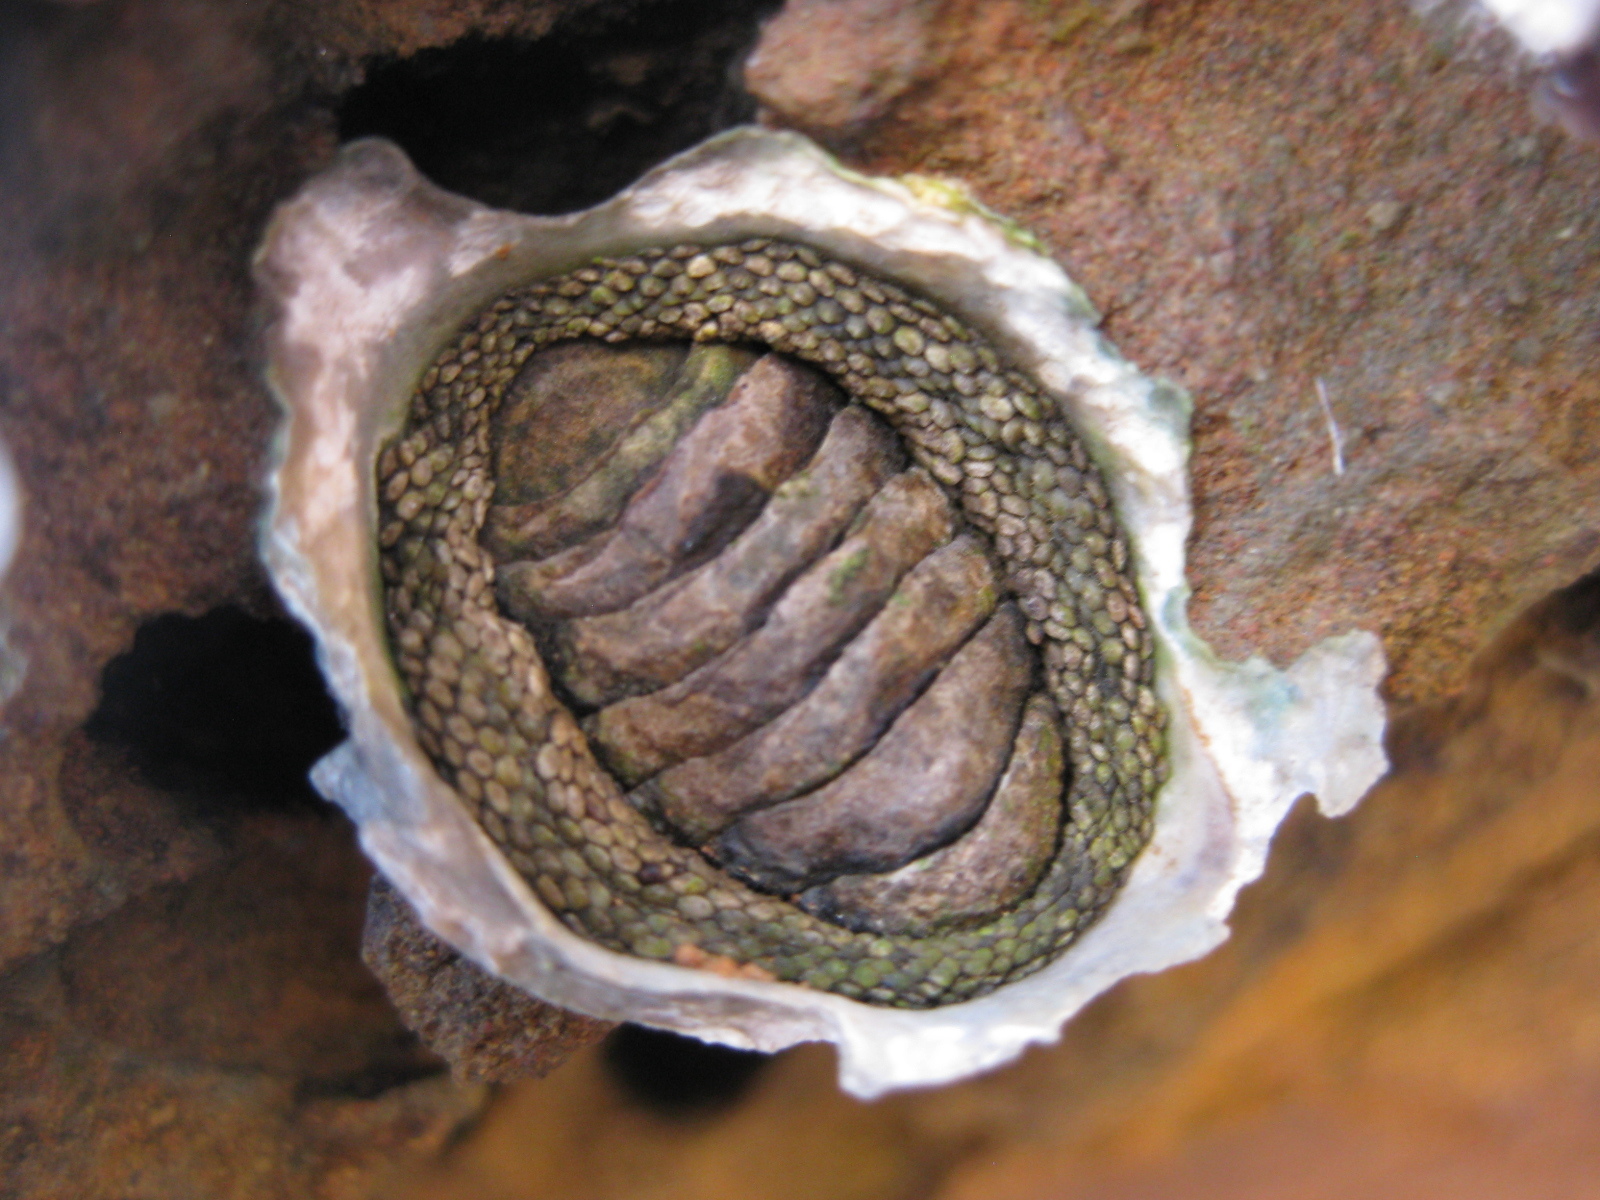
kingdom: Animalia
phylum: Mollusca
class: Polyplacophora
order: Chitonida
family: Chitonidae
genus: Sypharochiton
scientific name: Sypharochiton pelliserpentis
